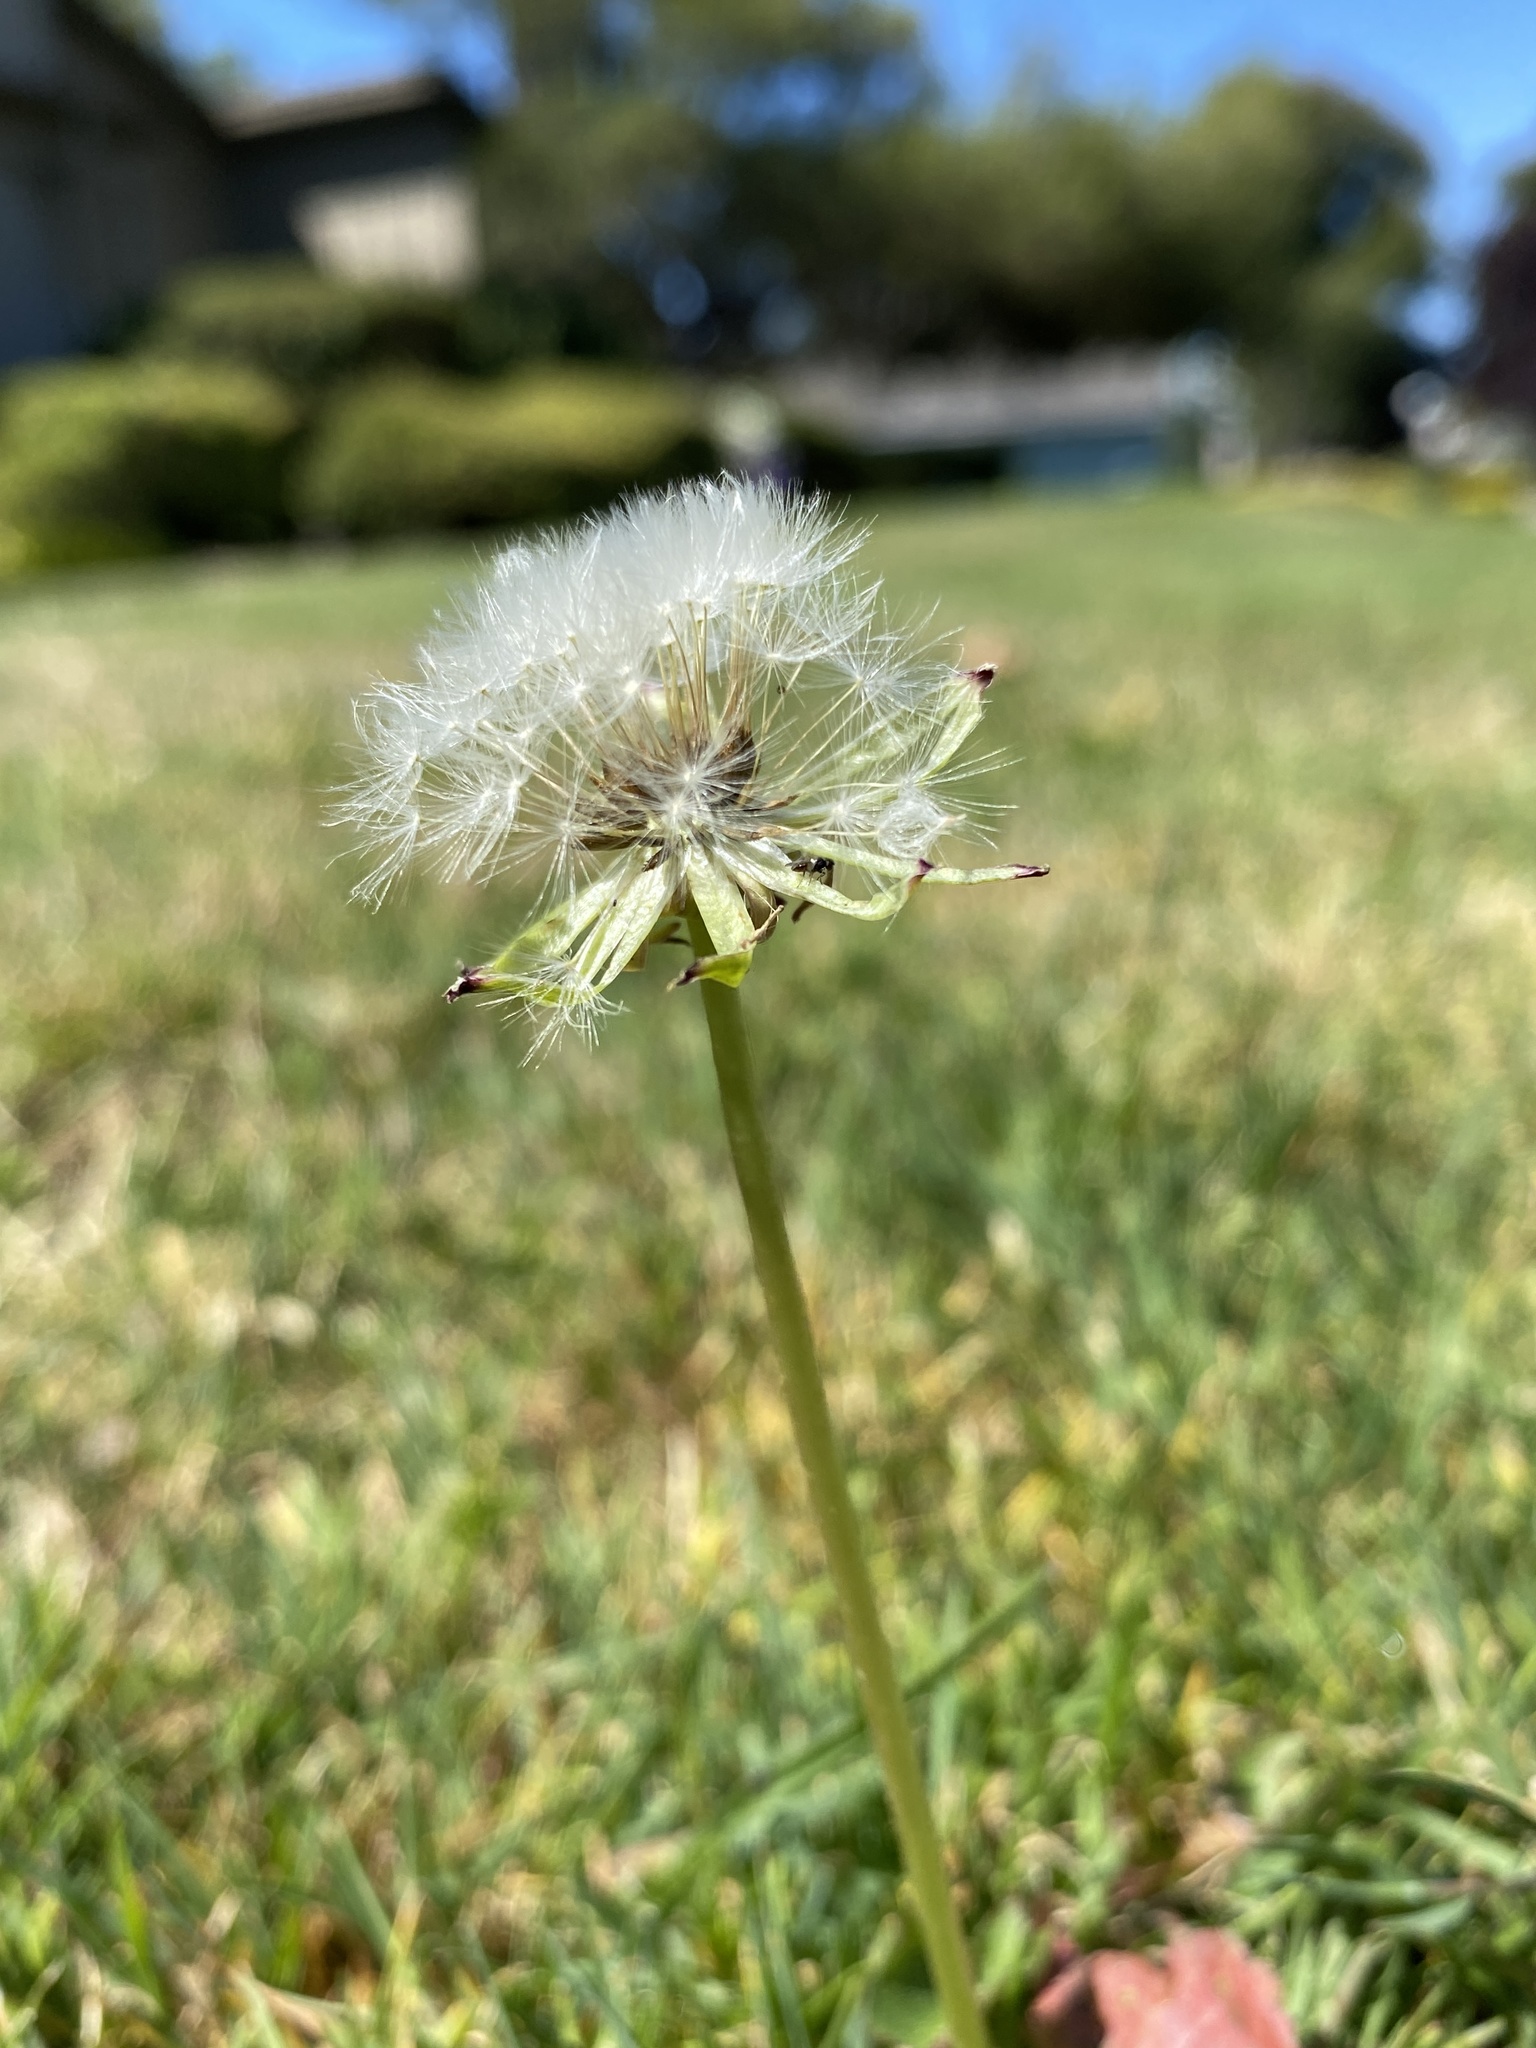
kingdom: Plantae
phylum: Tracheophyta
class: Magnoliopsida
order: Asterales
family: Asteraceae
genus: Taraxacum
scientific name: Taraxacum officinale
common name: Common dandelion
